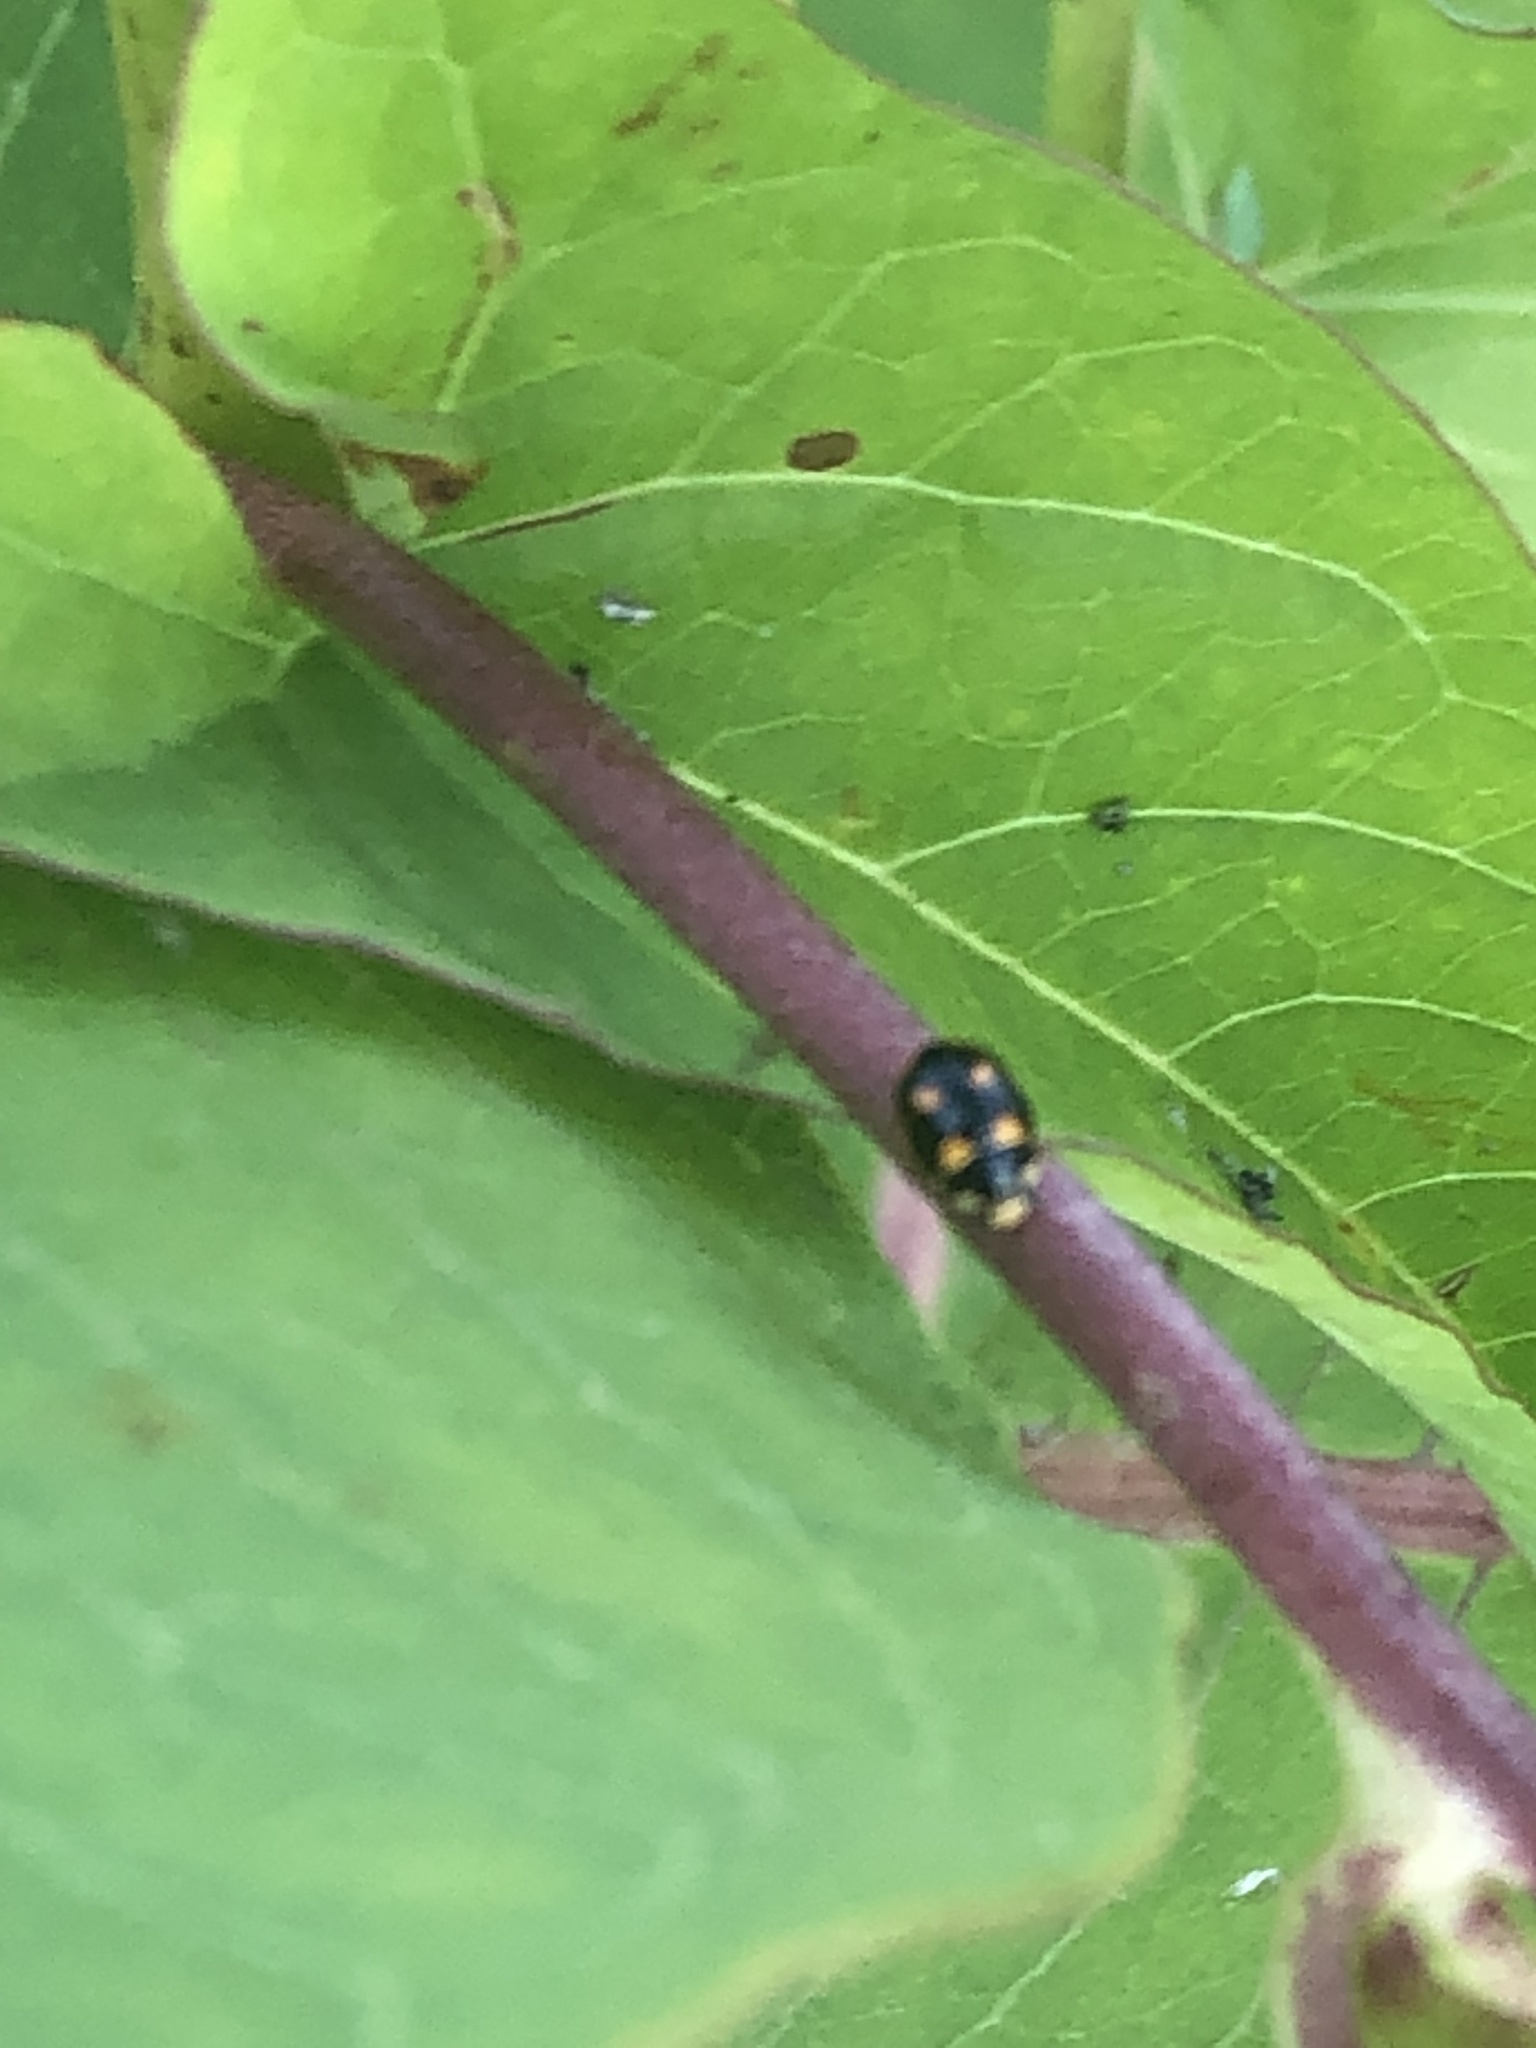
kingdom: Animalia
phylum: Arthropoda
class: Insecta
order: Coleoptera
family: Coccinellidae
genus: Brachiacantha
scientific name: Brachiacantha decempustulata
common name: Ten-spotted spurleg lady beetle
